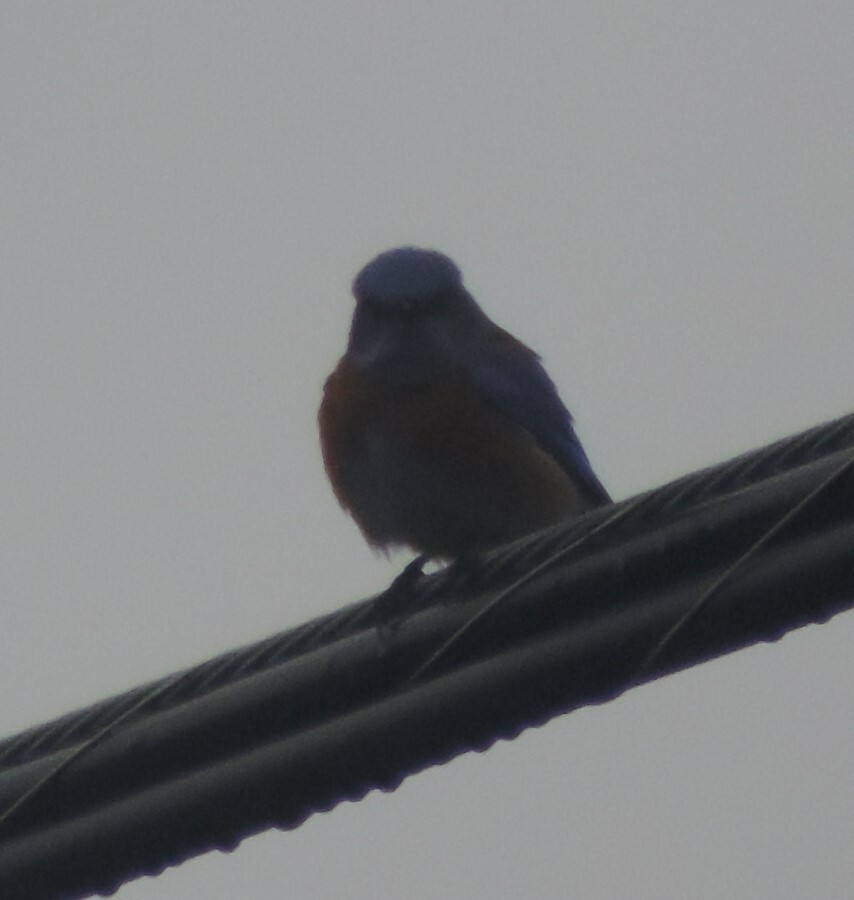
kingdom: Animalia
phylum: Chordata
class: Aves
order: Passeriformes
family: Turdidae
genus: Sialia
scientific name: Sialia mexicana
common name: Western bluebird
